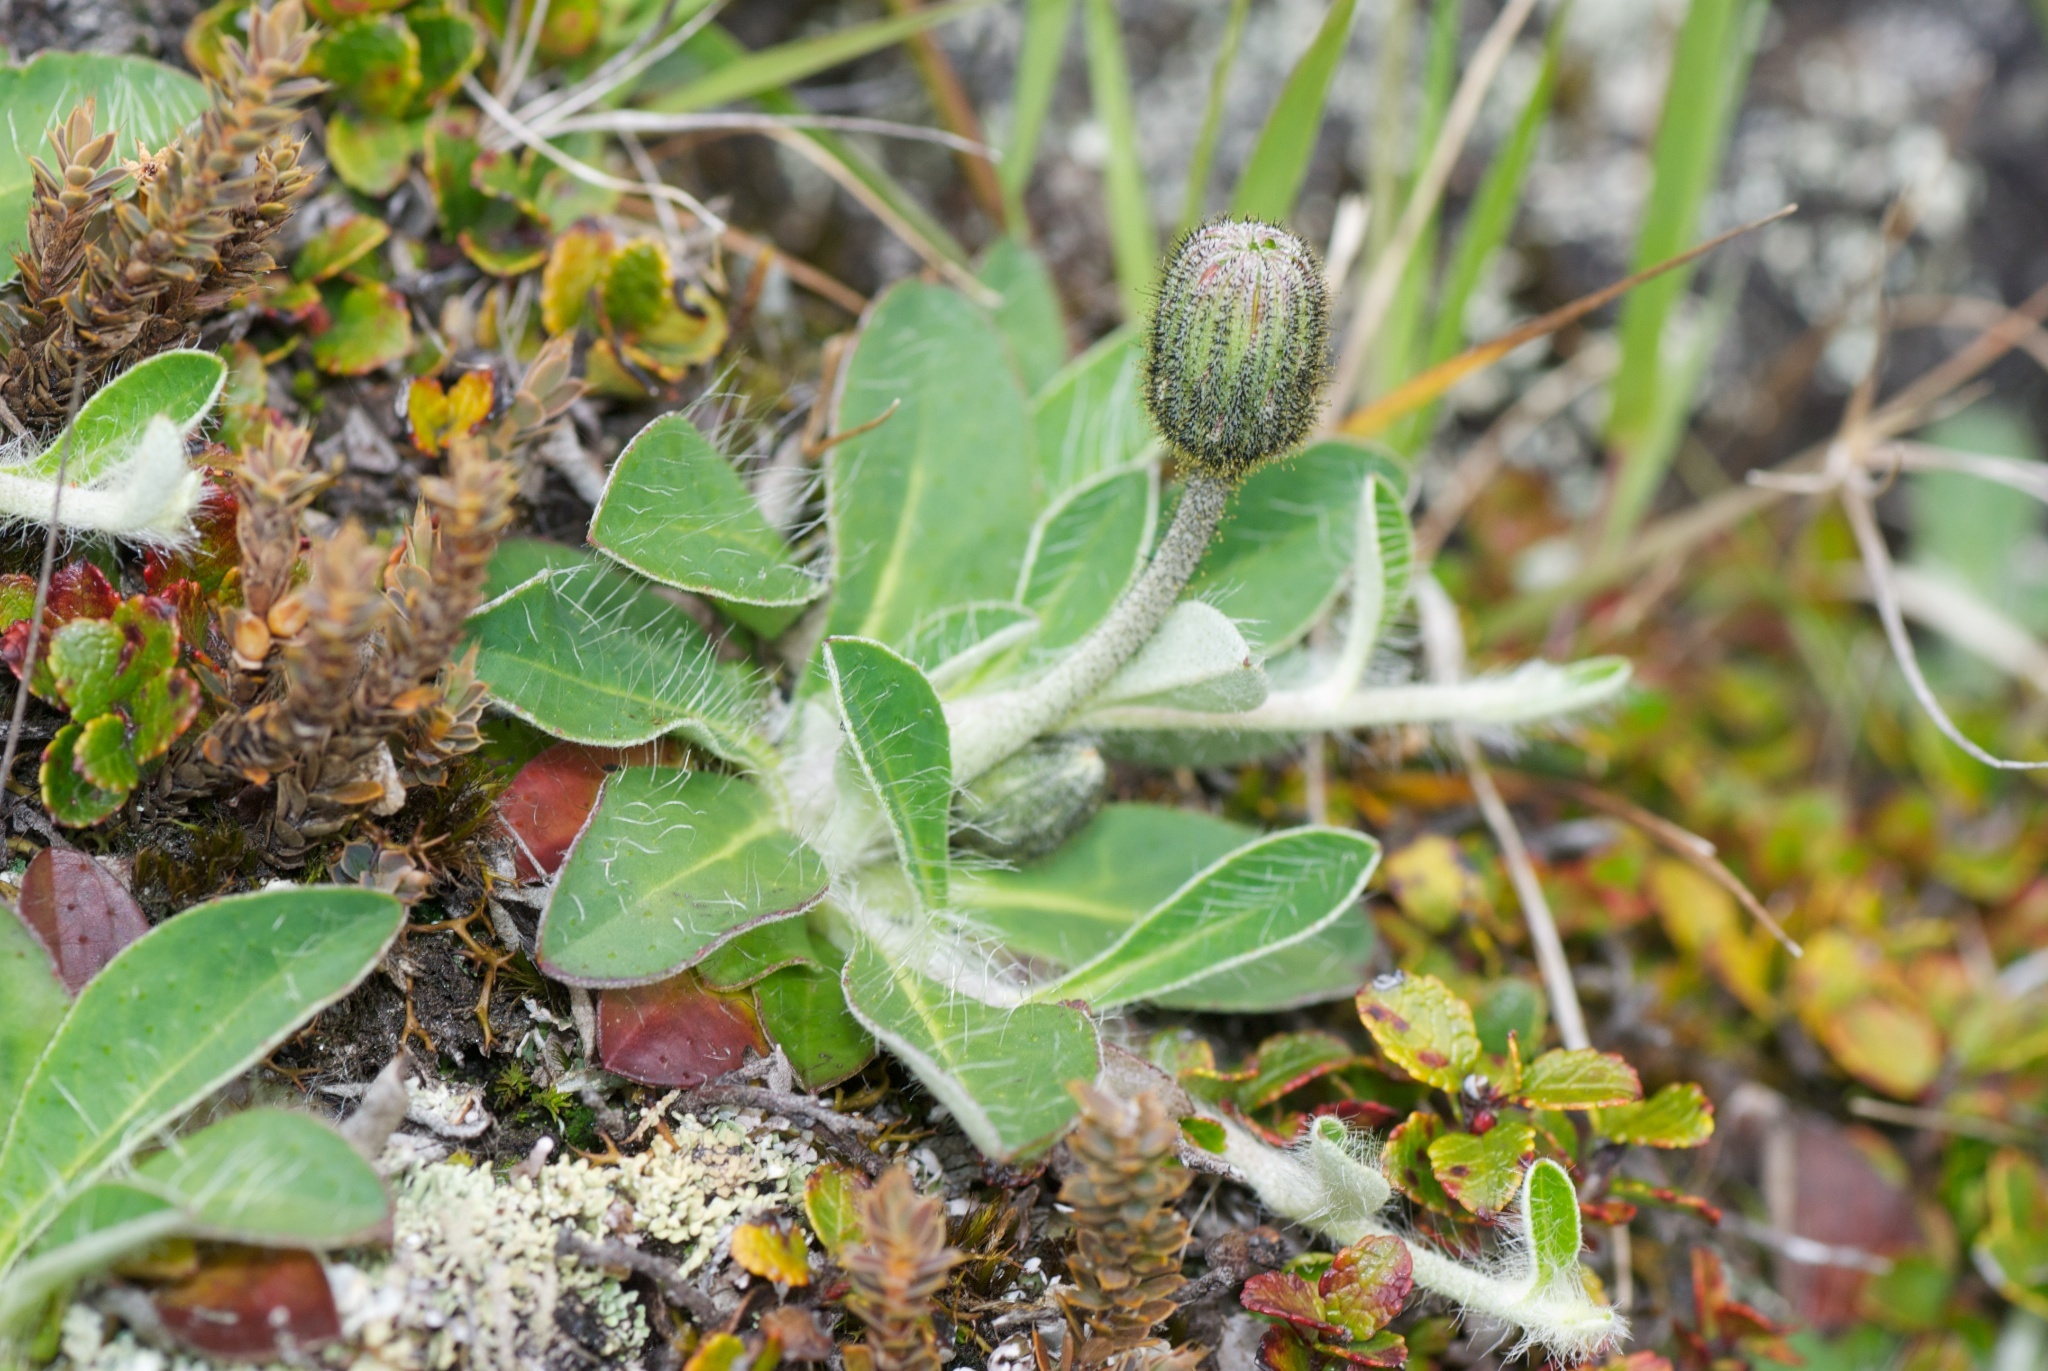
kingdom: Plantae
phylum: Tracheophyta
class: Magnoliopsida
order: Asterales
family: Asteraceae
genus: Pilosella
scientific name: Pilosella officinarum
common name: Mouse-ear hawkweed
